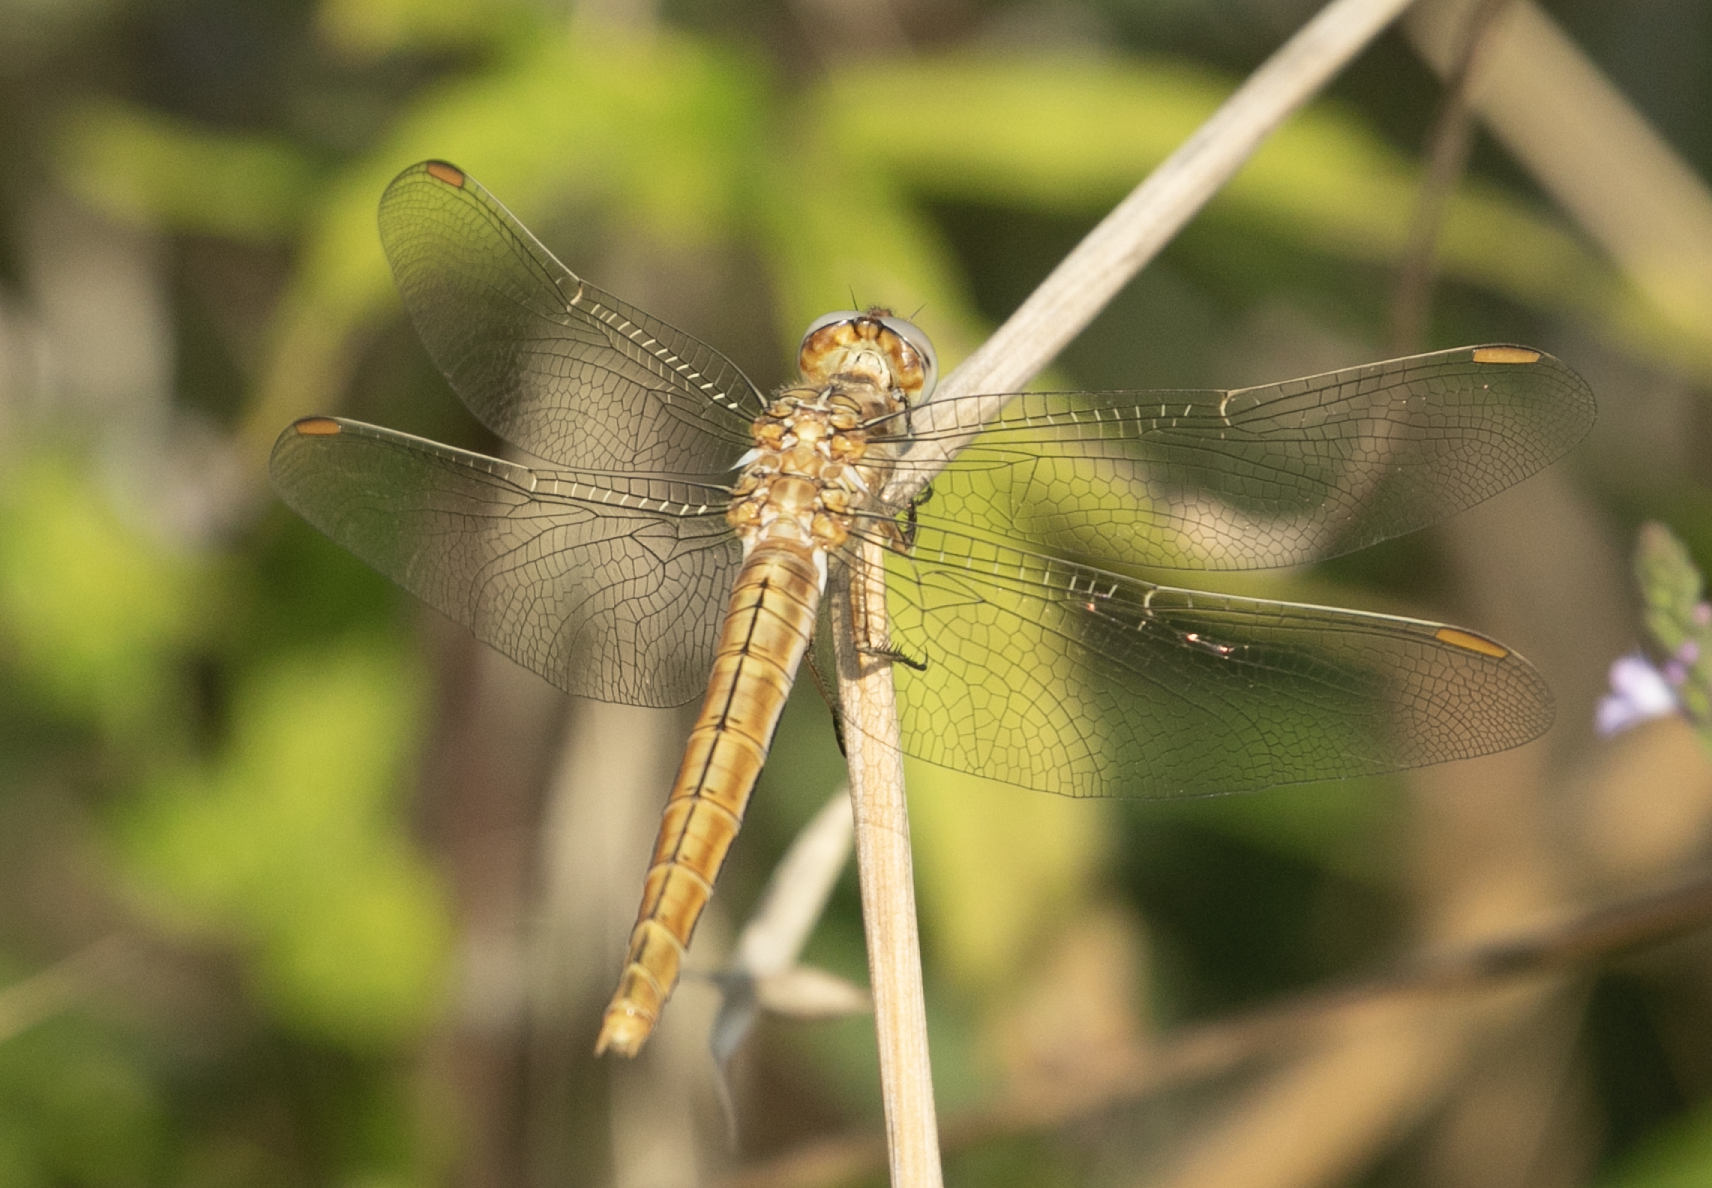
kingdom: Animalia
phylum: Arthropoda
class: Insecta
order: Odonata
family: Libellulidae
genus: Orthetrum
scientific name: Orthetrum brunneum
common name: Southern skimmer
